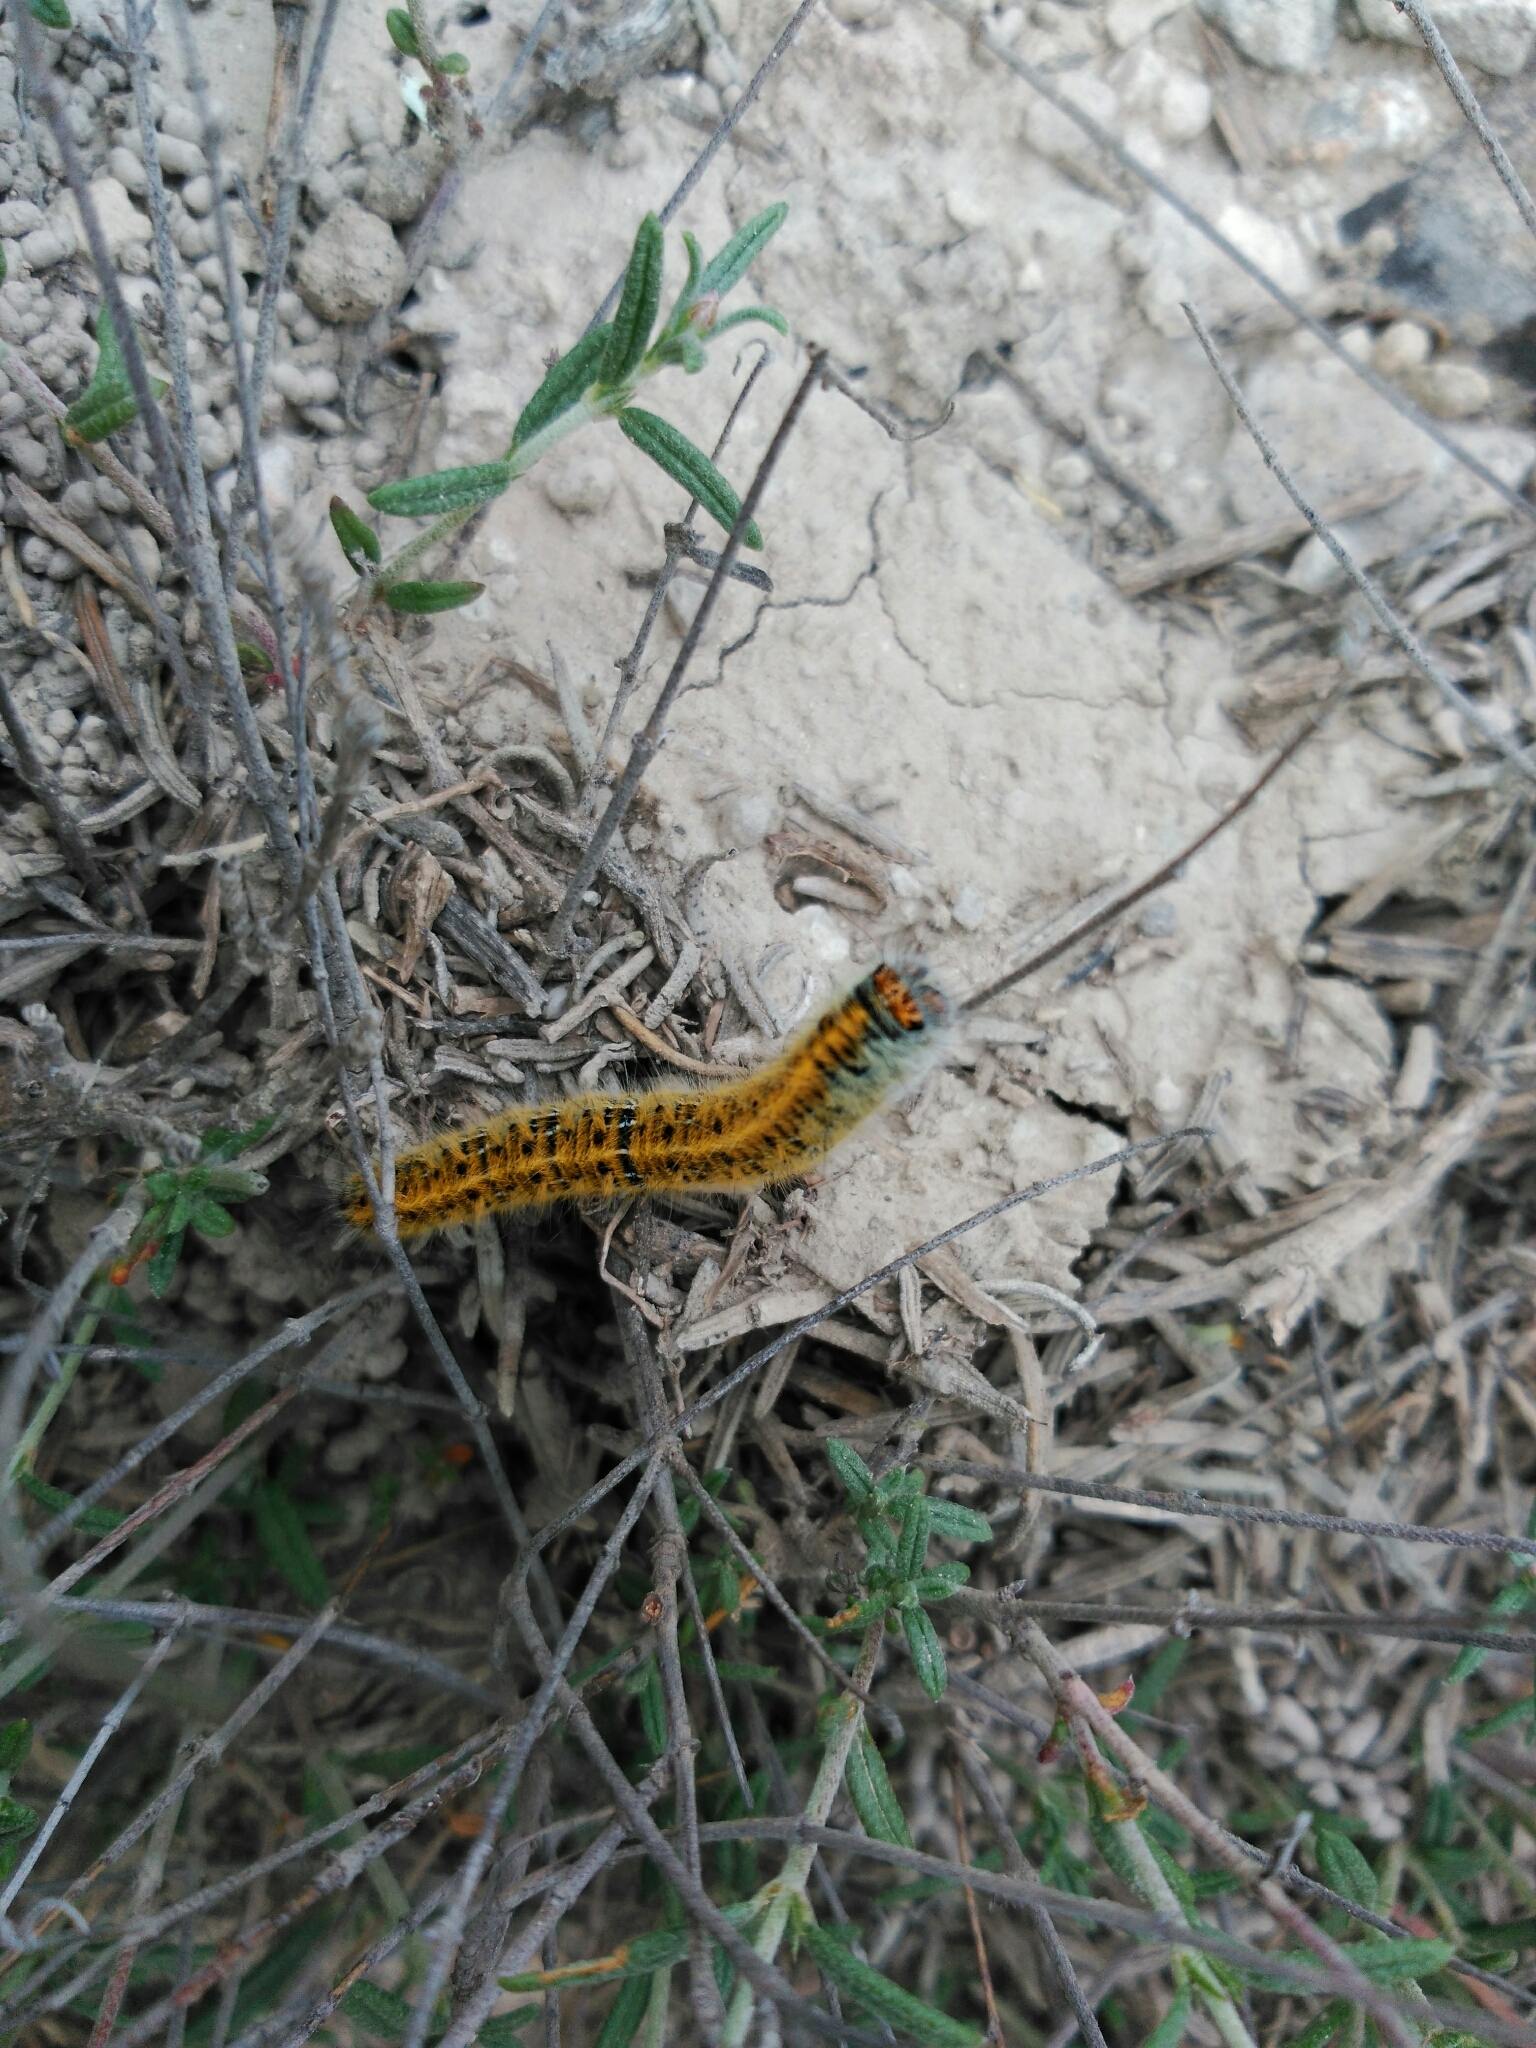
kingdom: Animalia
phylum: Arthropoda
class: Insecta
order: Lepidoptera
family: Lasiocampidae
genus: Lasiocampa
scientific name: Lasiocampa trifolii
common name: Grass eggar
